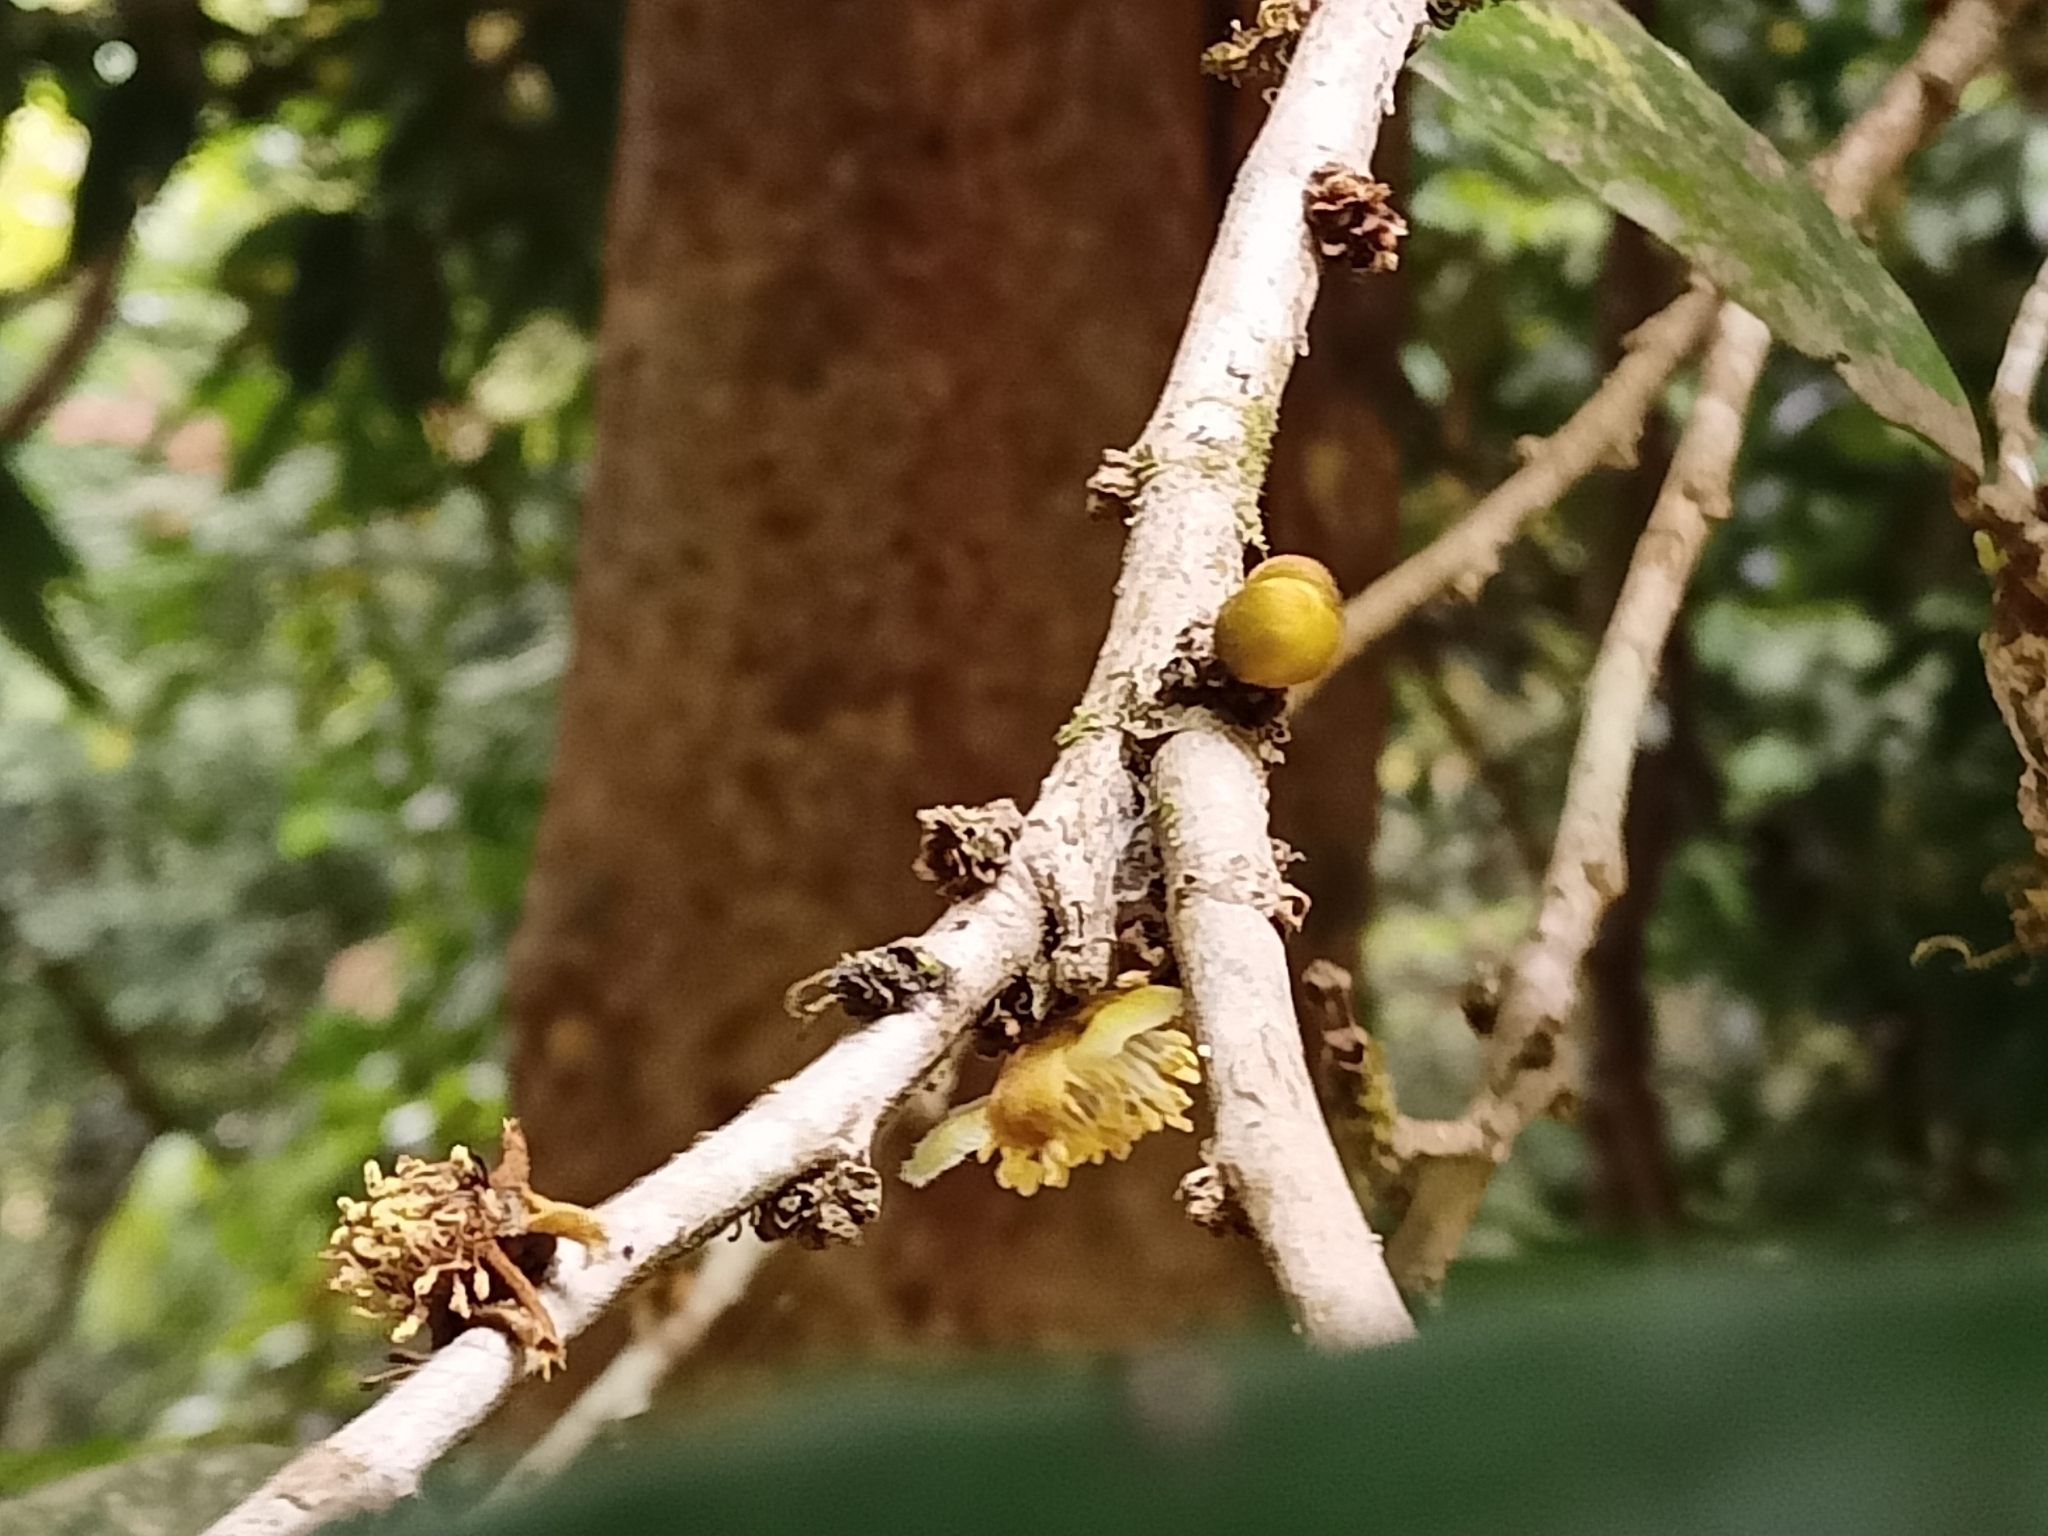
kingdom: Plantae
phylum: Tracheophyta
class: Magnoliopsida
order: Malpighiales
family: Putranjivaceae
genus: Drypetes
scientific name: Drypetes oblongifolia
